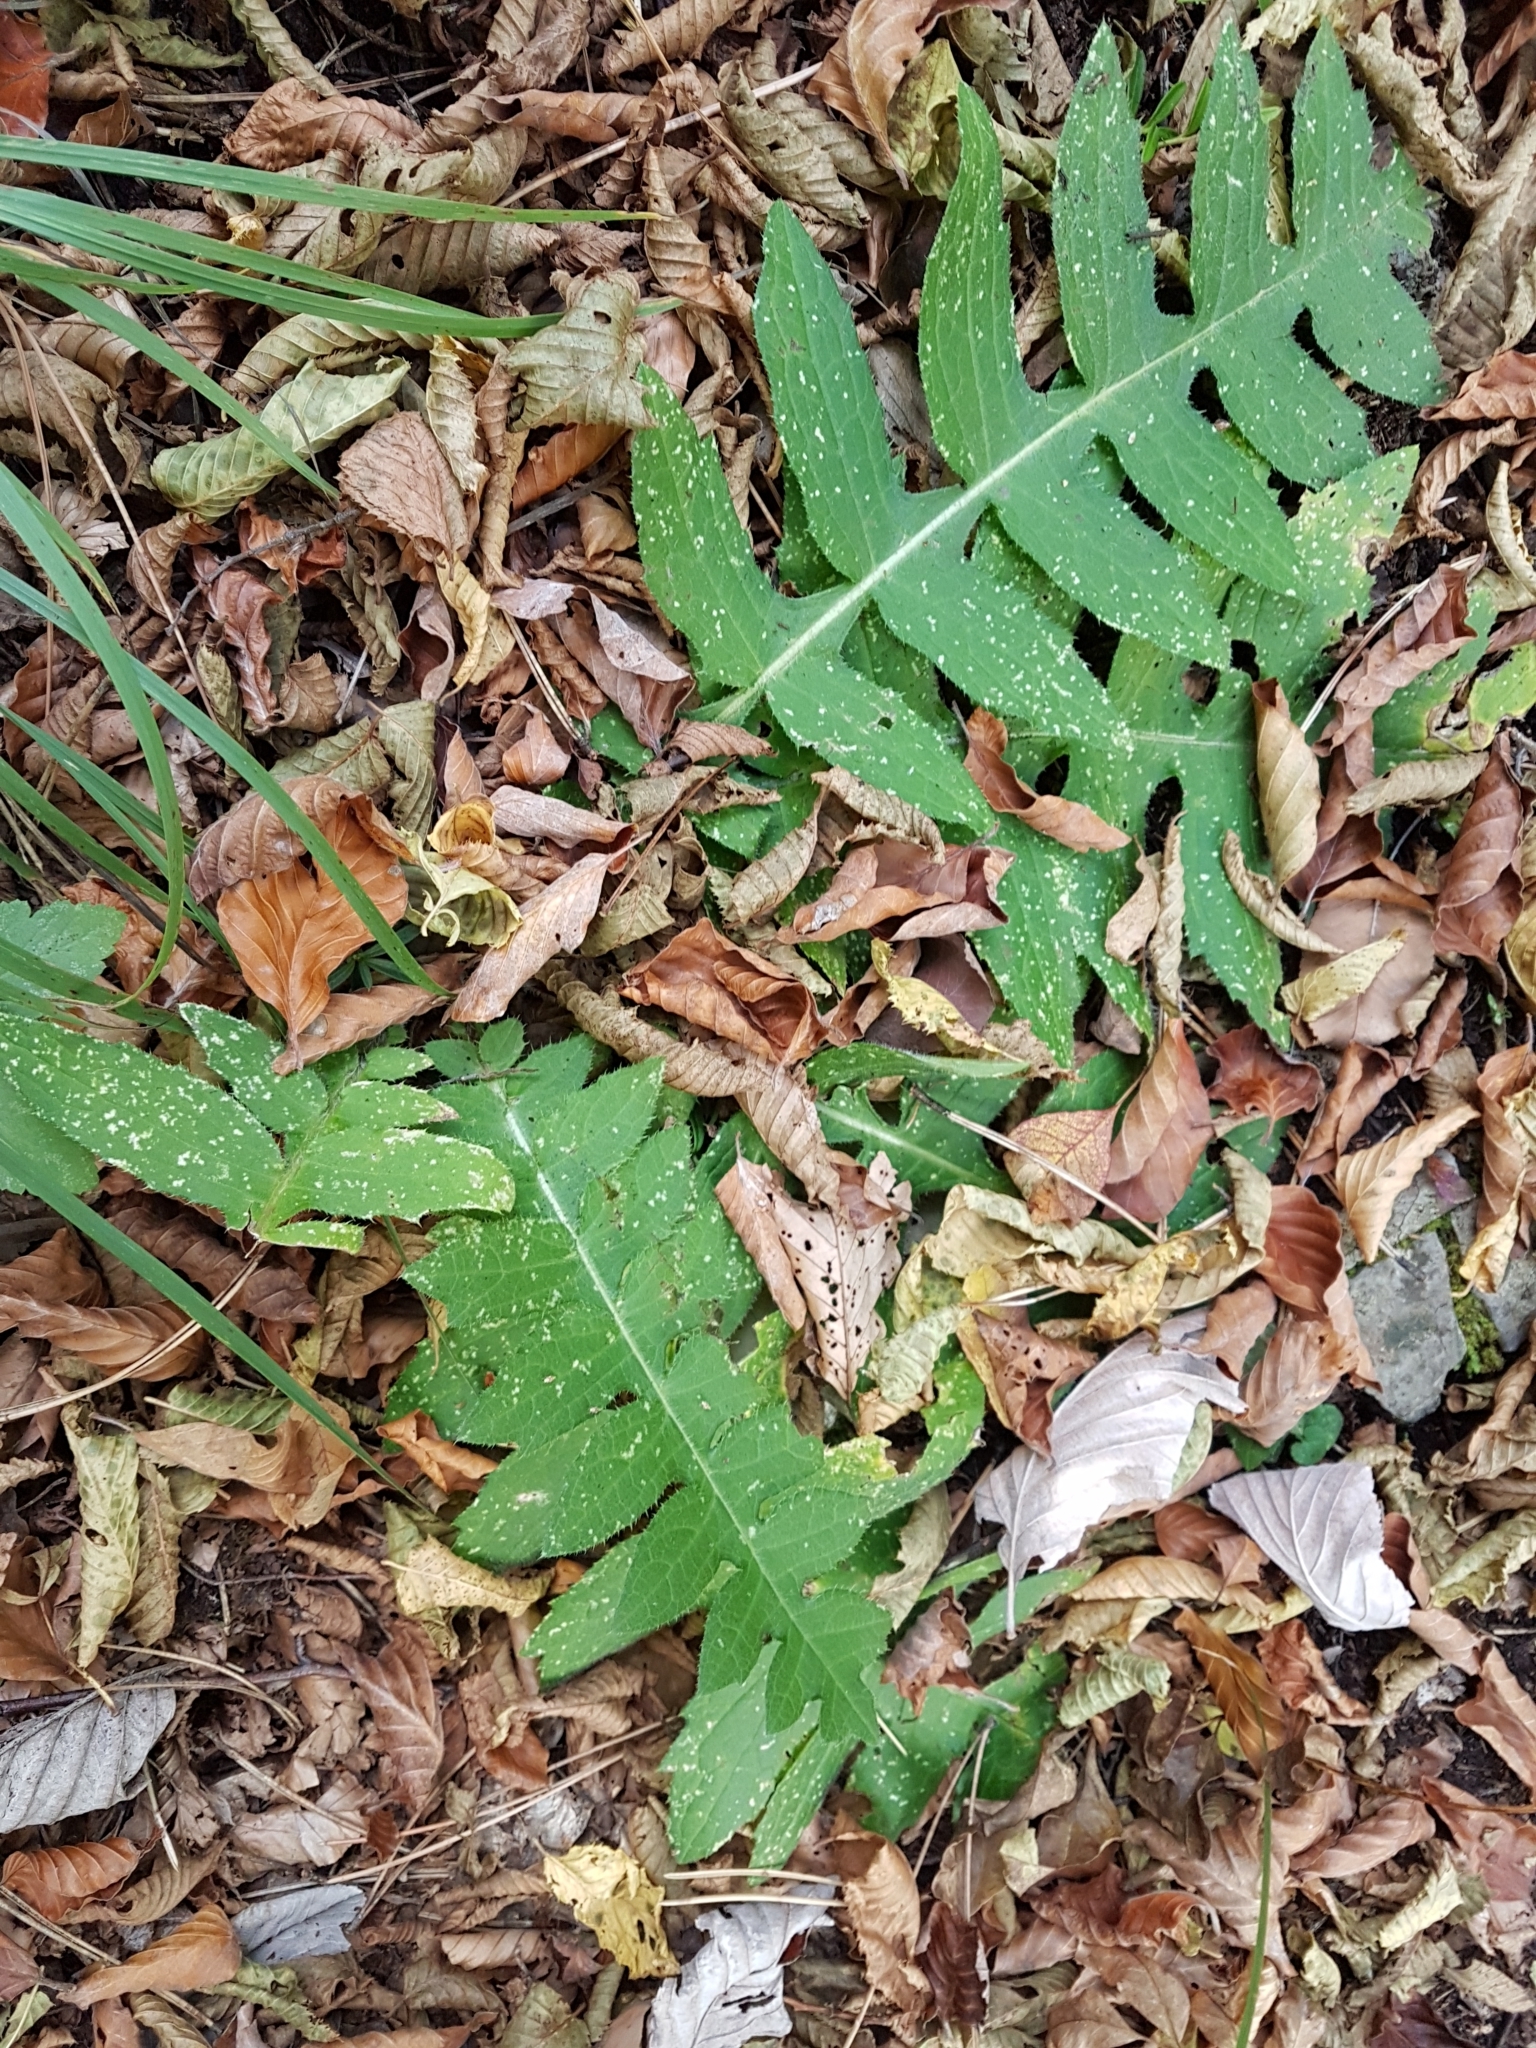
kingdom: Plantae
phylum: Tracheophyta
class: Magnoliopsida
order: Asterales
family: Asteraceae
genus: Cirsium
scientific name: Cirsium erisithales
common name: Yellow thistle
